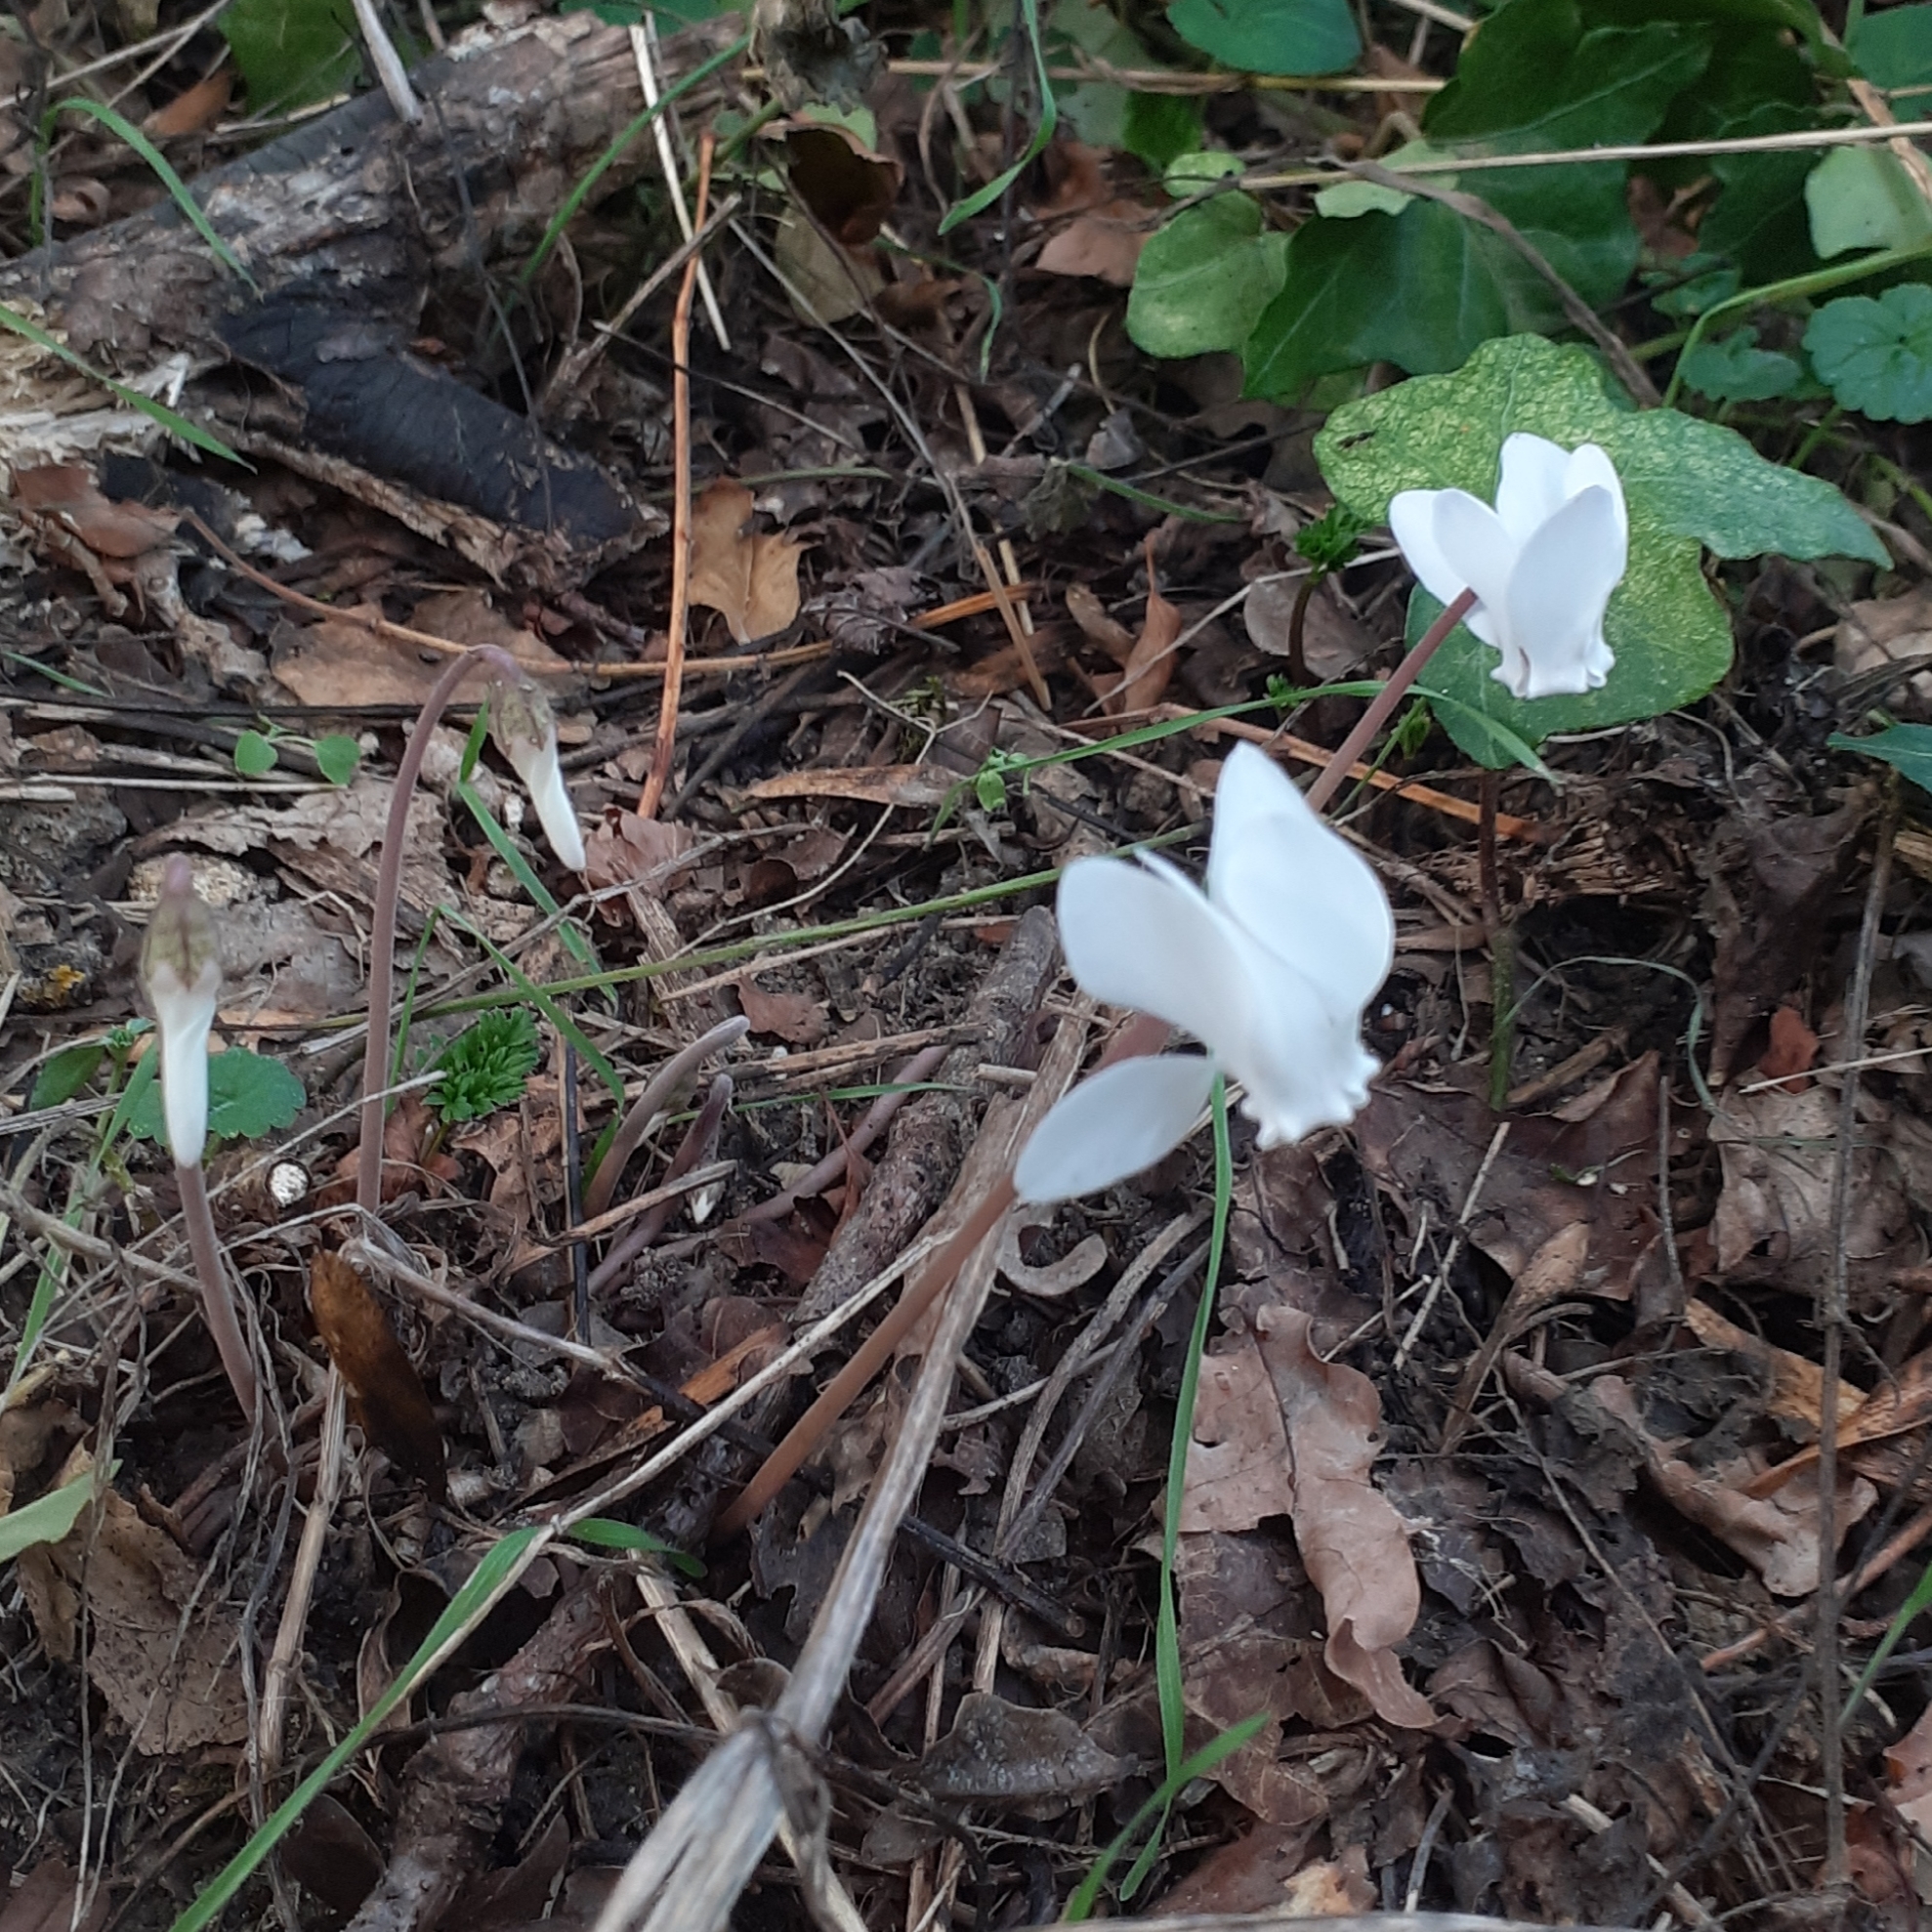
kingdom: Plantae
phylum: Tracheophyta
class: Magnoliopsida
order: Ericales
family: Primulaceae
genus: Cyclamen
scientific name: Cyclamen hederifolium
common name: Sowbread
